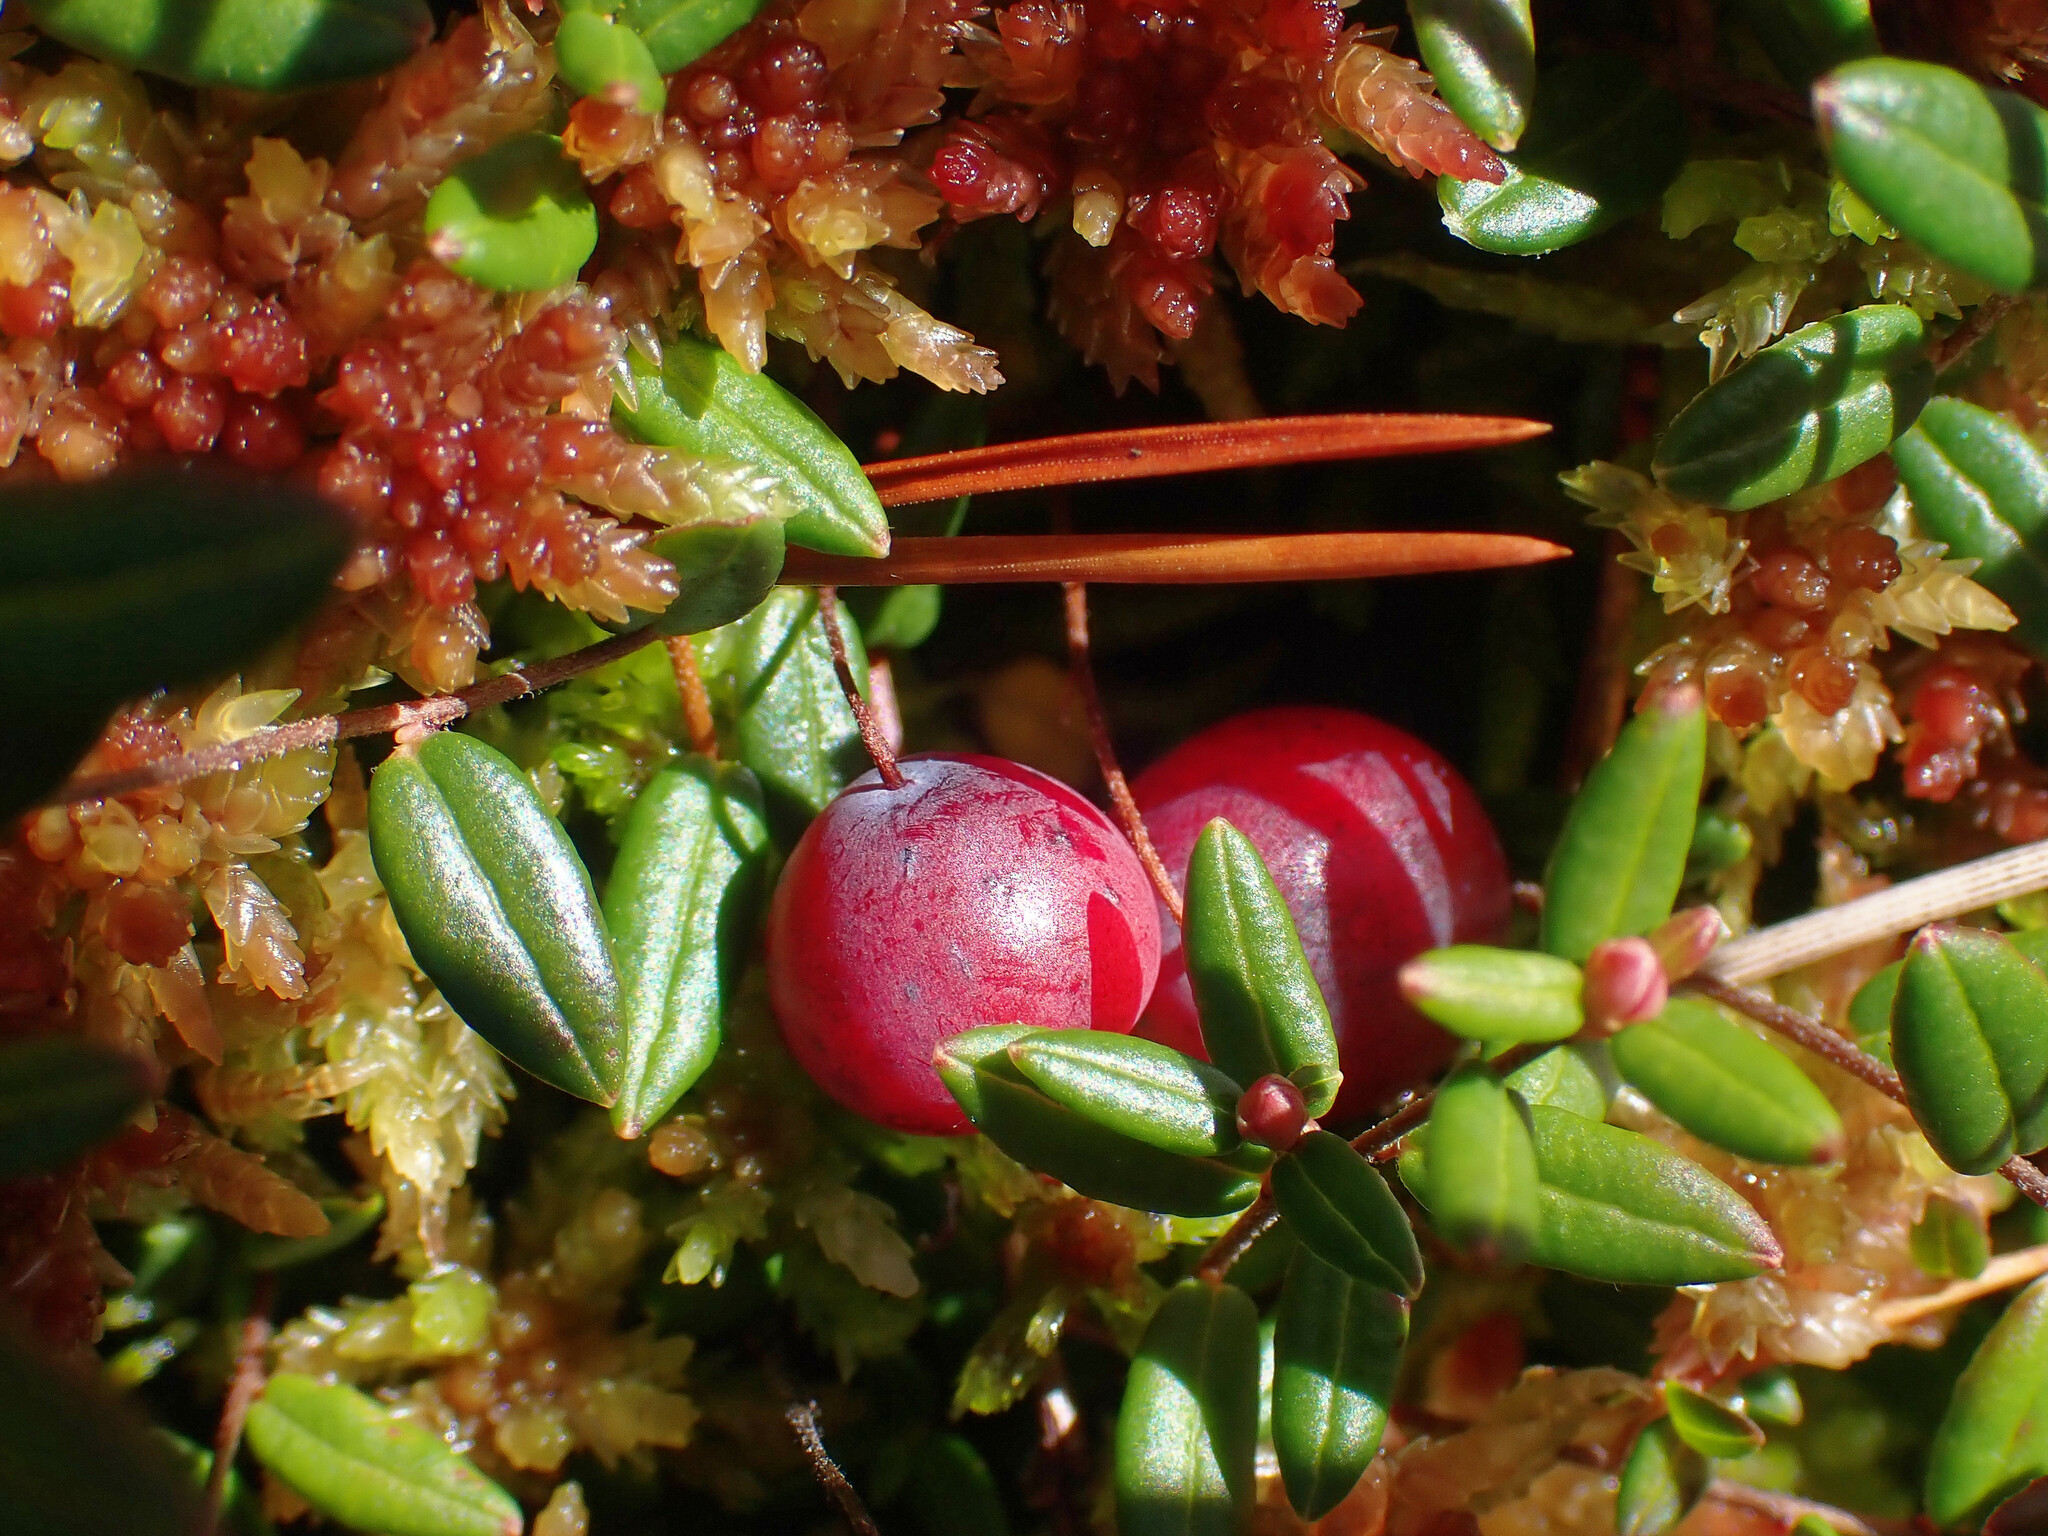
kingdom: Plantae
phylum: Tracheophyta
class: Magnoliopsida
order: Ericales
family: Ericaceae
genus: Vaccinium
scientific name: Vaccinium oxycoccos
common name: Cranberry
